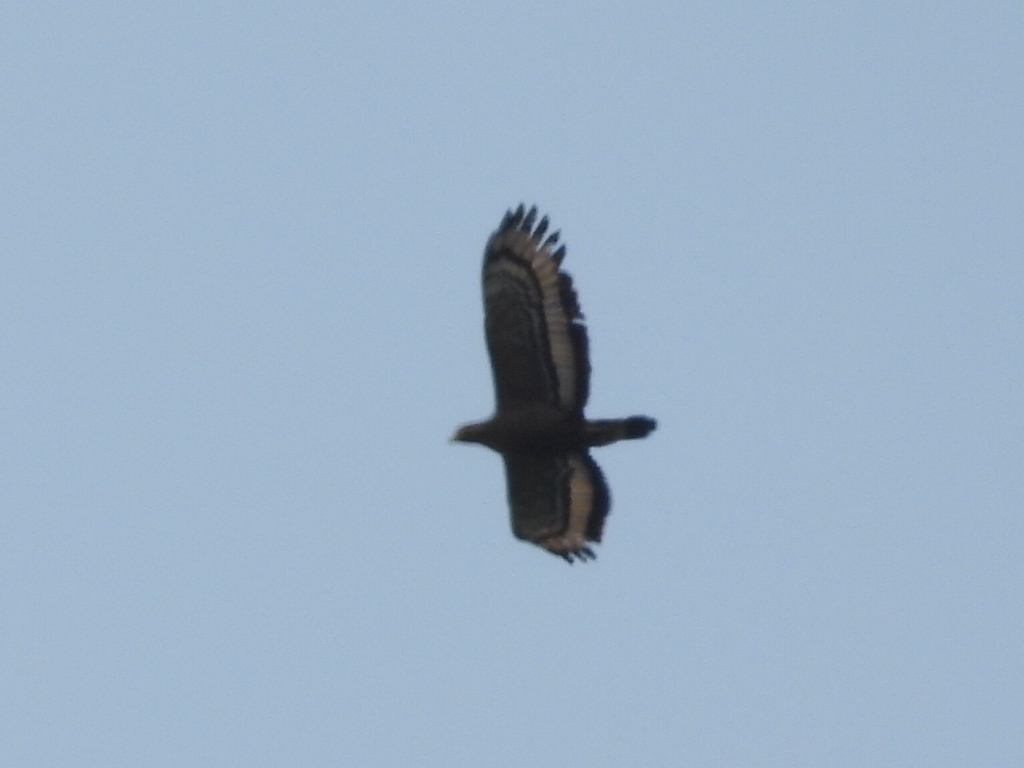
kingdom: Animalia
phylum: Chordata
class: Aves
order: Accipitriformes
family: Accipitridae
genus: Spilornis
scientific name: Spilornis cheela
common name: Crested serpent eagle
